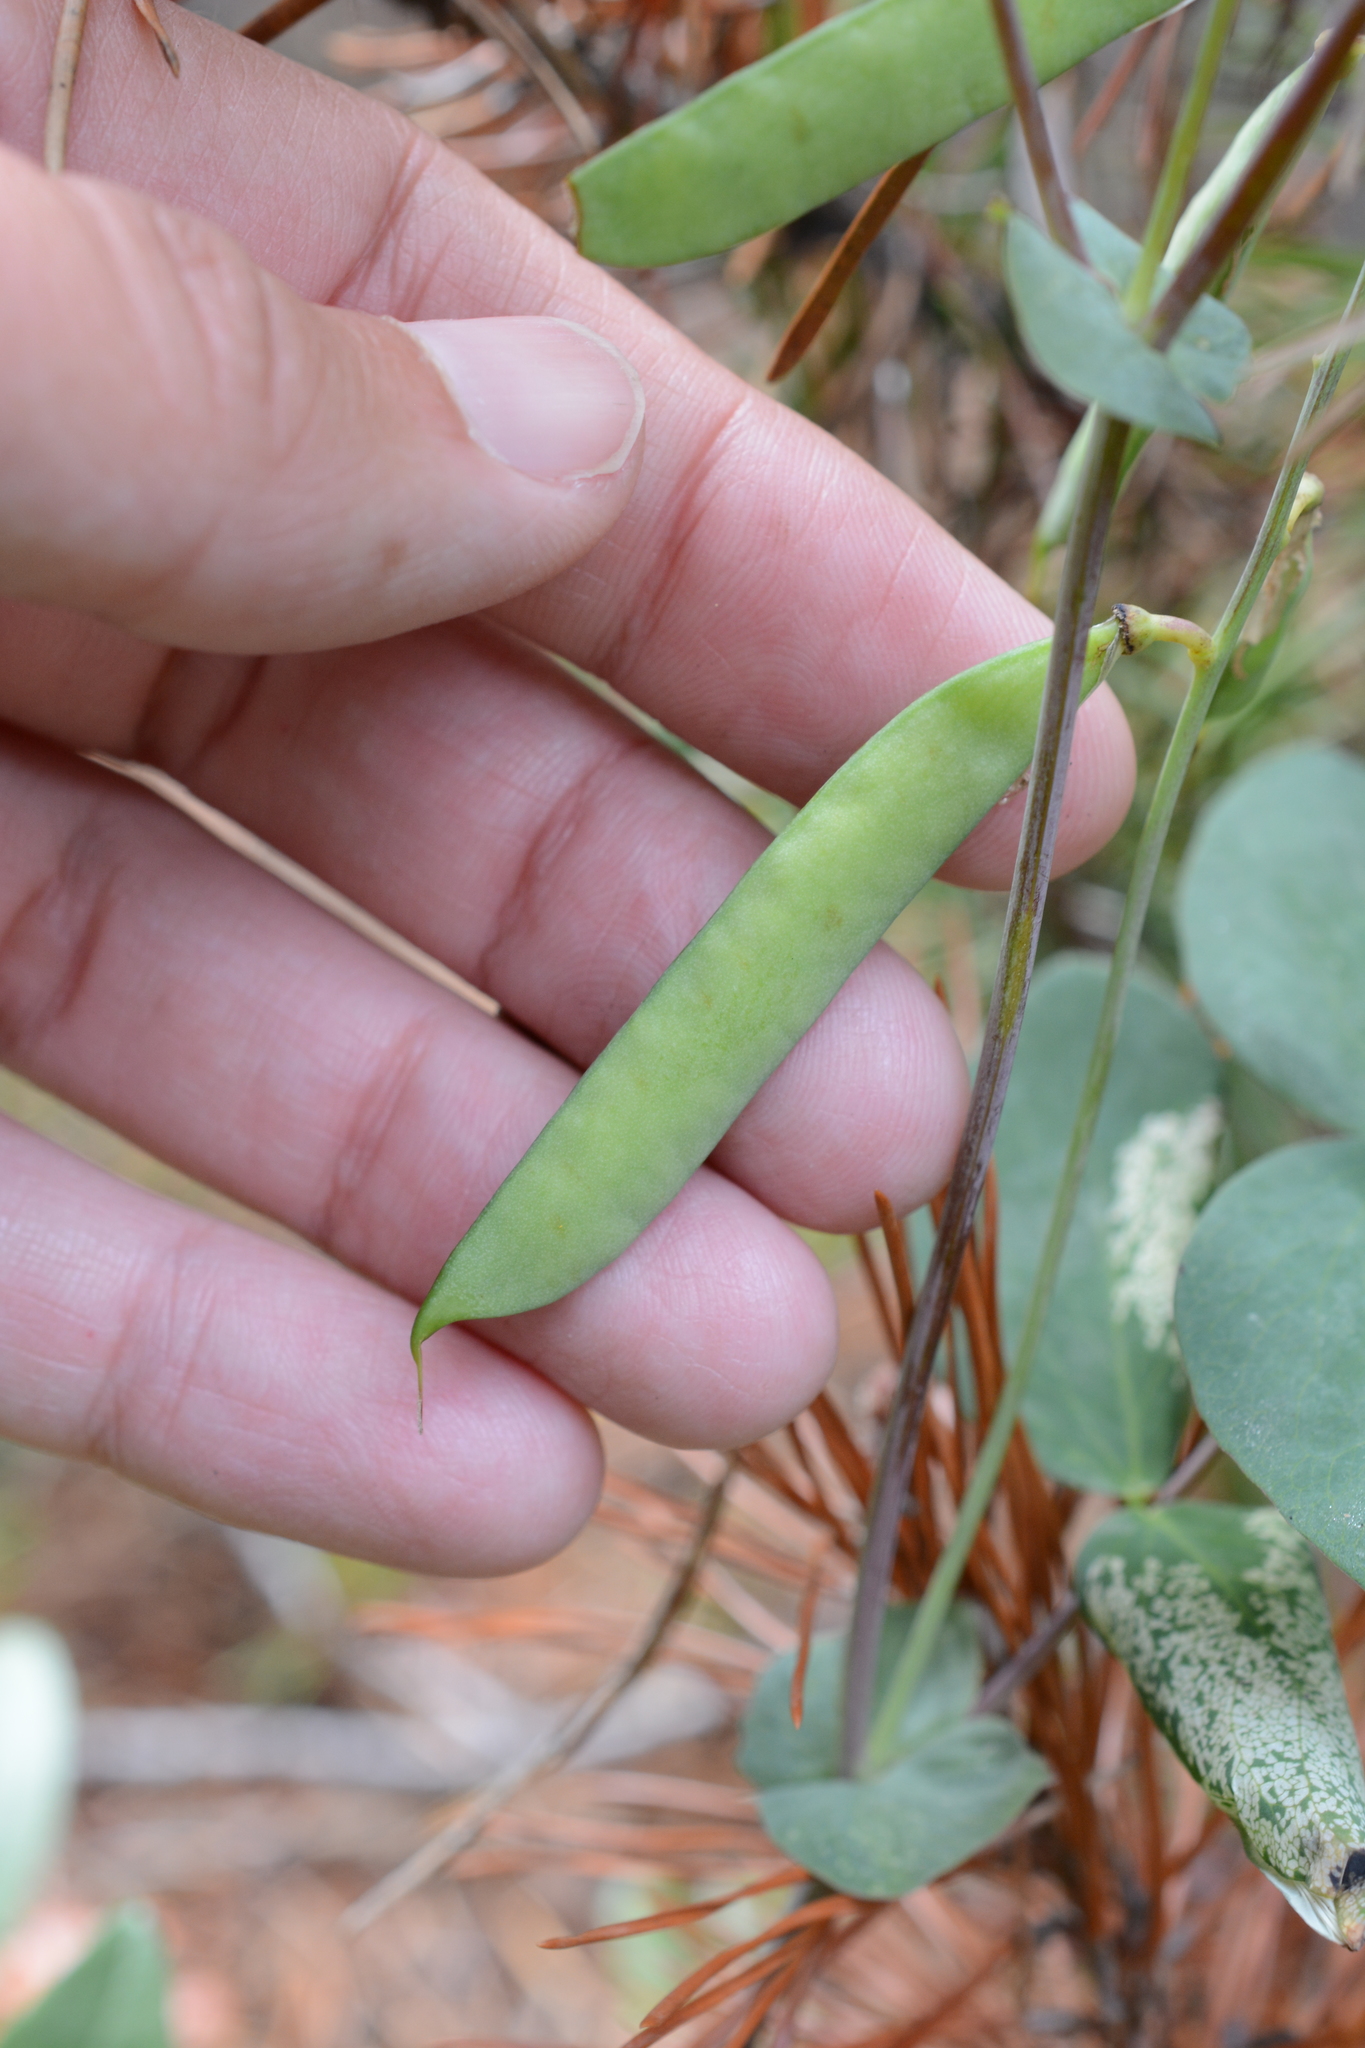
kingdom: Plantae
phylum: Tracheophyta
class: Magnoliopsida
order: Fabales
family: Fabaceae
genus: Lathyrus
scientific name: Lathyrus ochroleucus
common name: Pale vetchling
